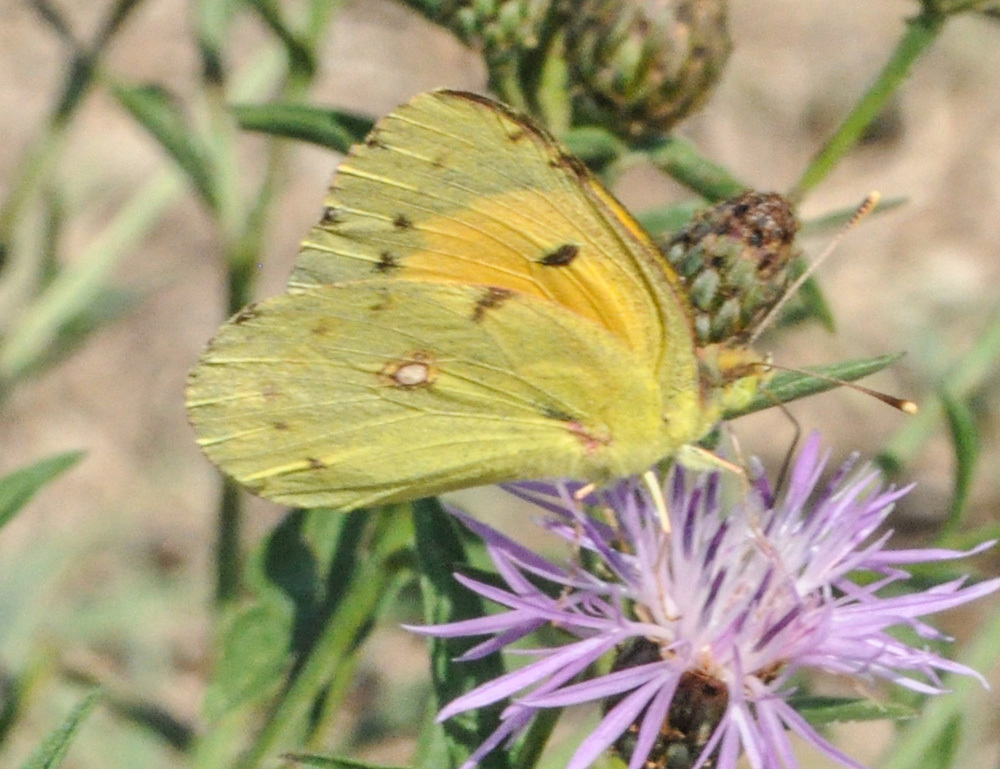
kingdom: Animalia
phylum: Arthropoda
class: Insecta
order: Lepidoptera
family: Pieridae
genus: Colias
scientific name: Colias croceus
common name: Clouded yellow
